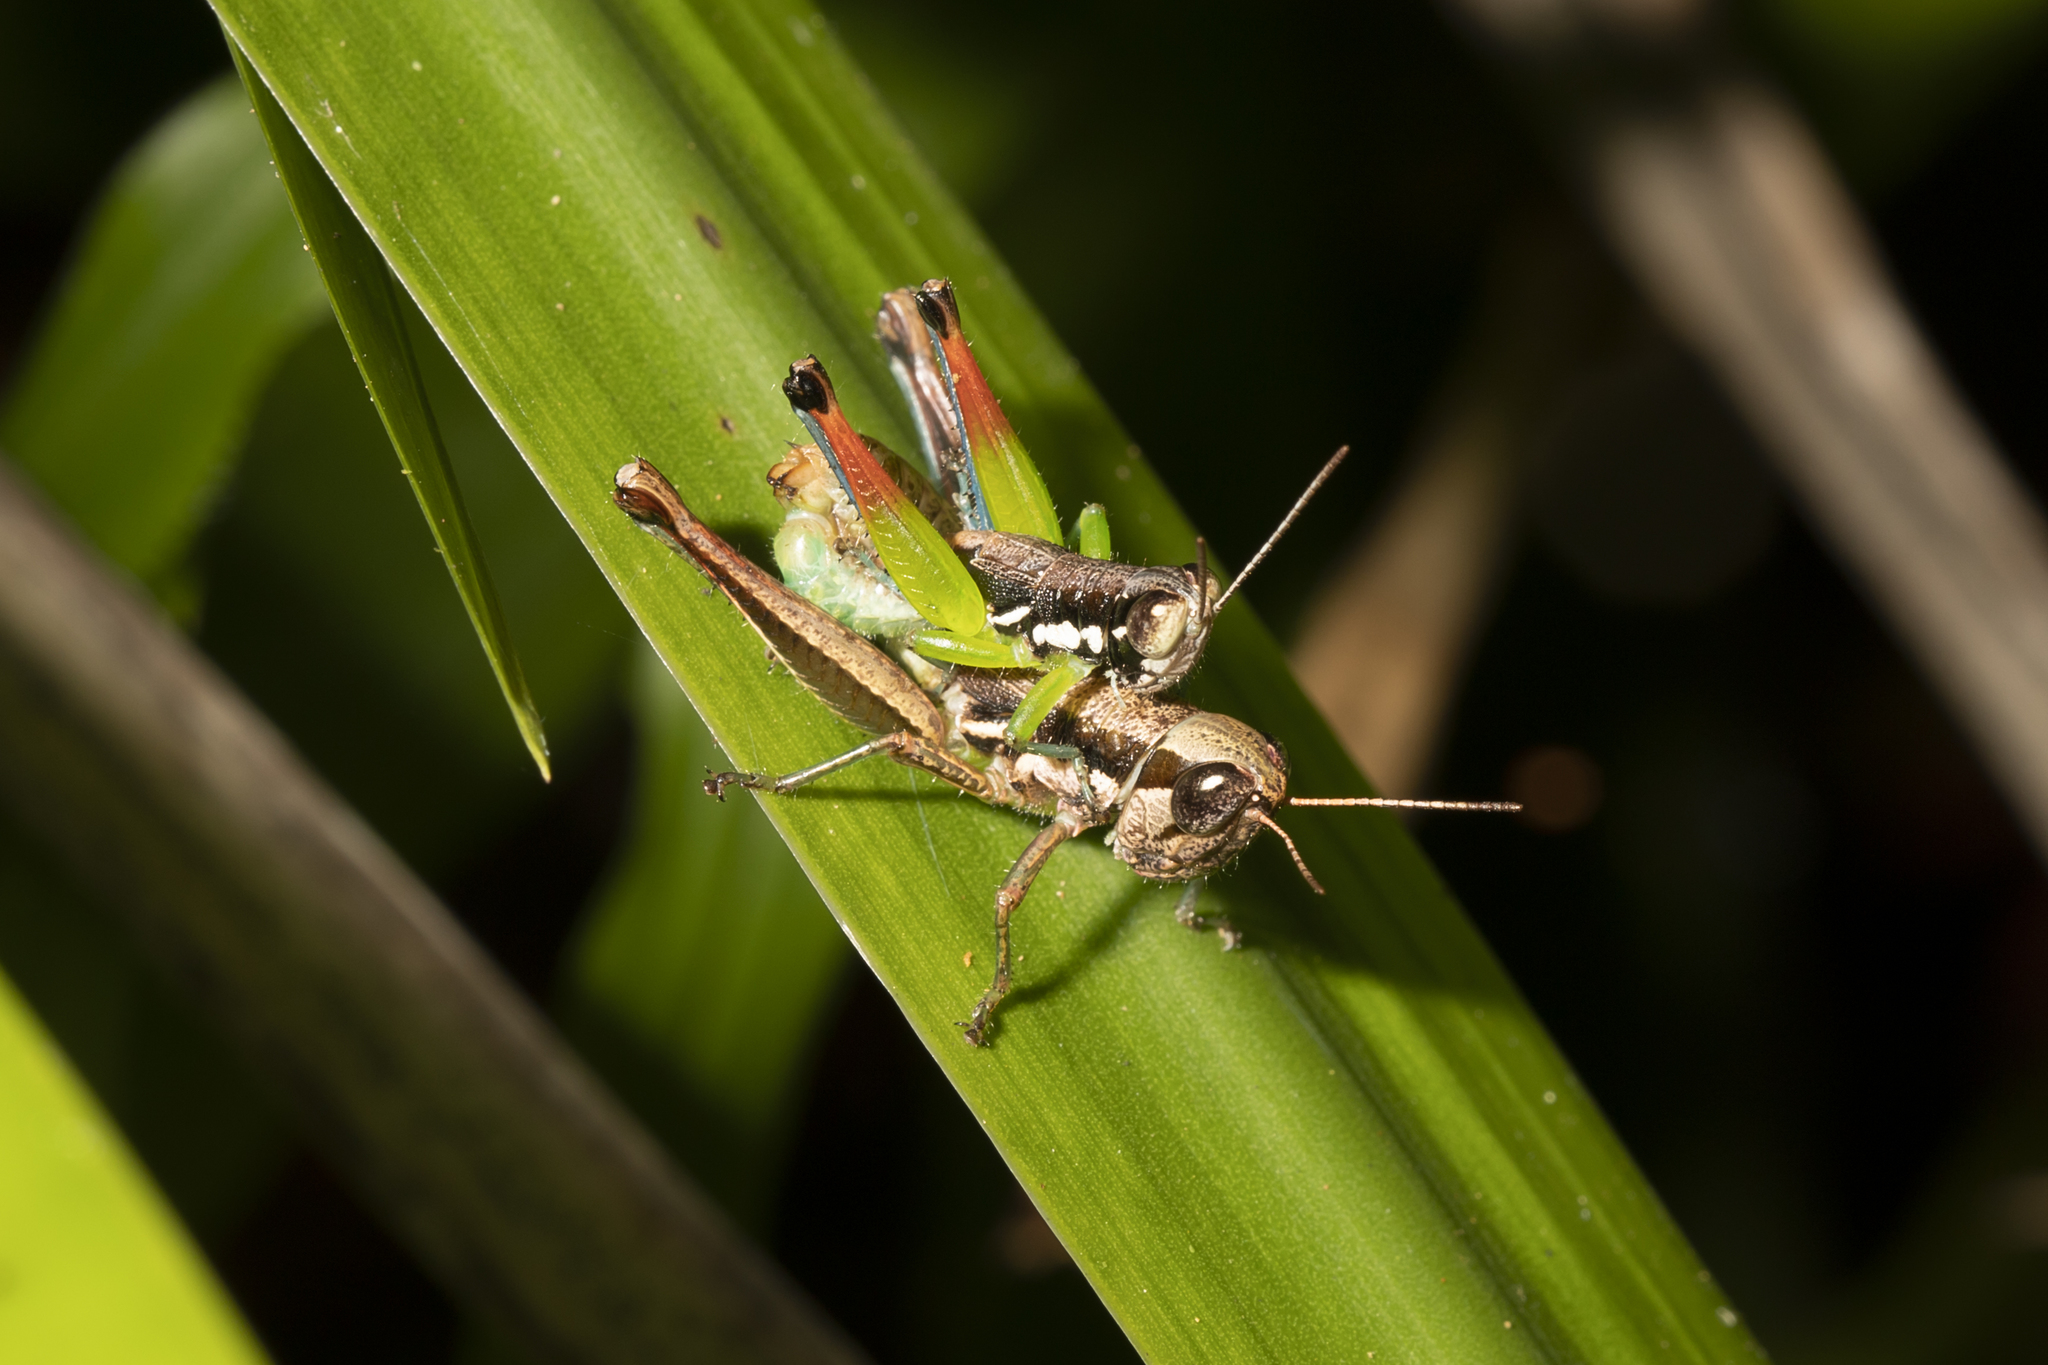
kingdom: Animalia
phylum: Arthropoda
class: Insecta
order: Orthoptera
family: Acrididae
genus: Methiola
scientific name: Methiola picta
